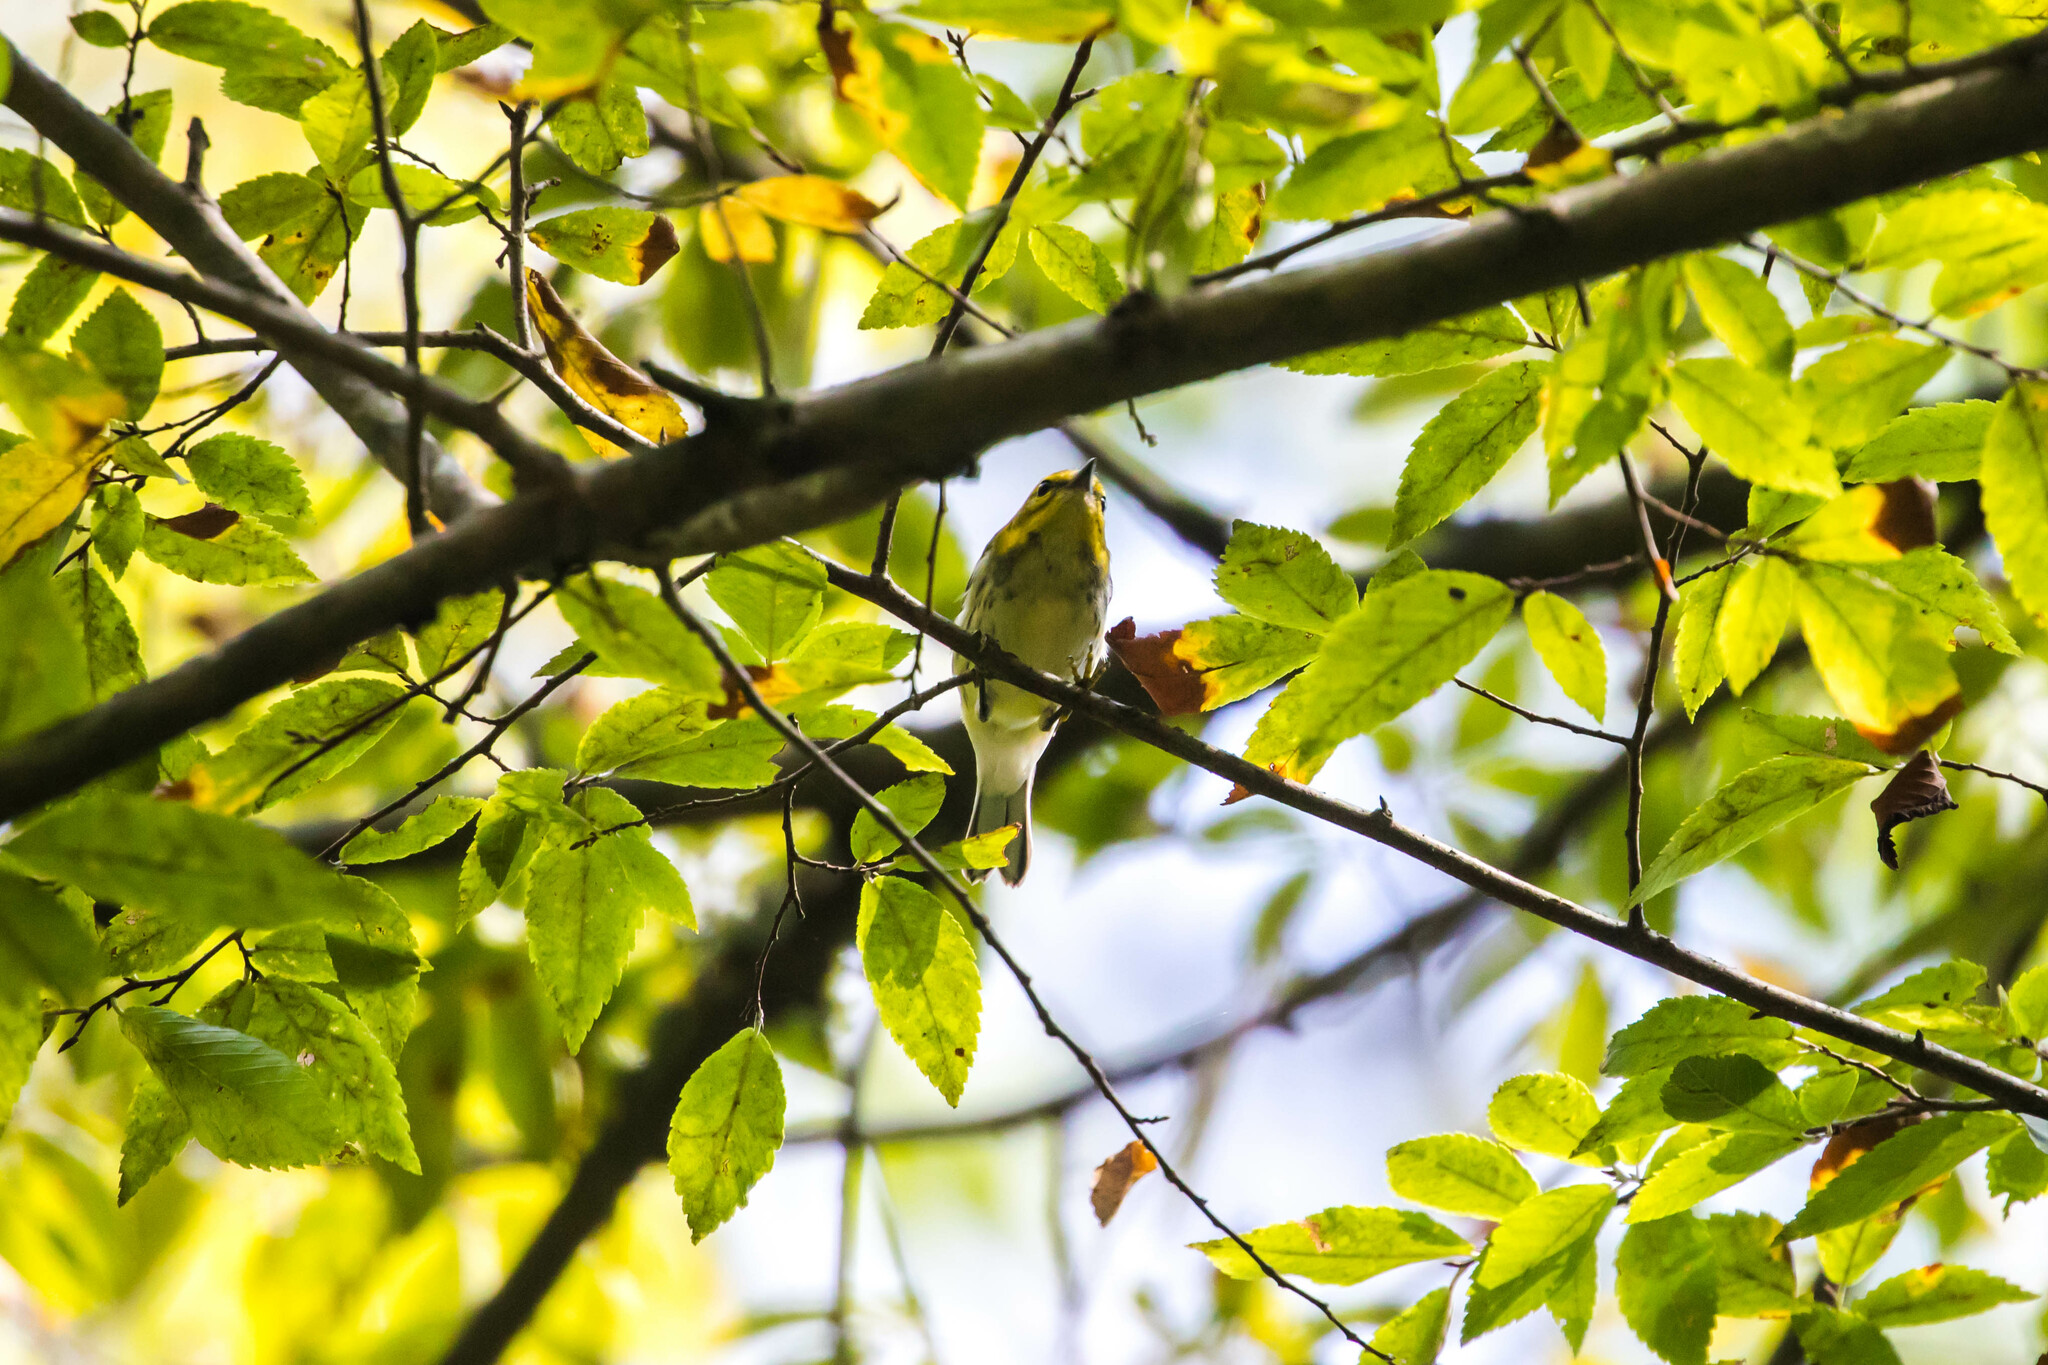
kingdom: Animalia
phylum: Chordata
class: Aves
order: Passeriformes
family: Parulidae
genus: Setophaga
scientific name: Setophaga virens
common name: Black-throated green warbler
